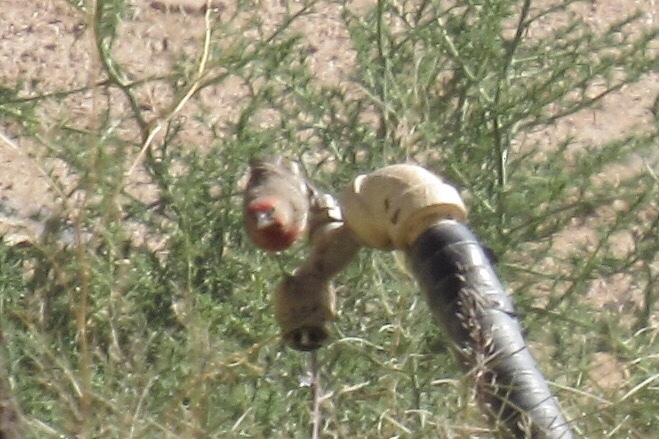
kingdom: Animalia
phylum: Chordata
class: Aves
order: Passeriformes
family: Fringillidae
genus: Haemorhous
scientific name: Haemorhous mexicanus
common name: House finch
